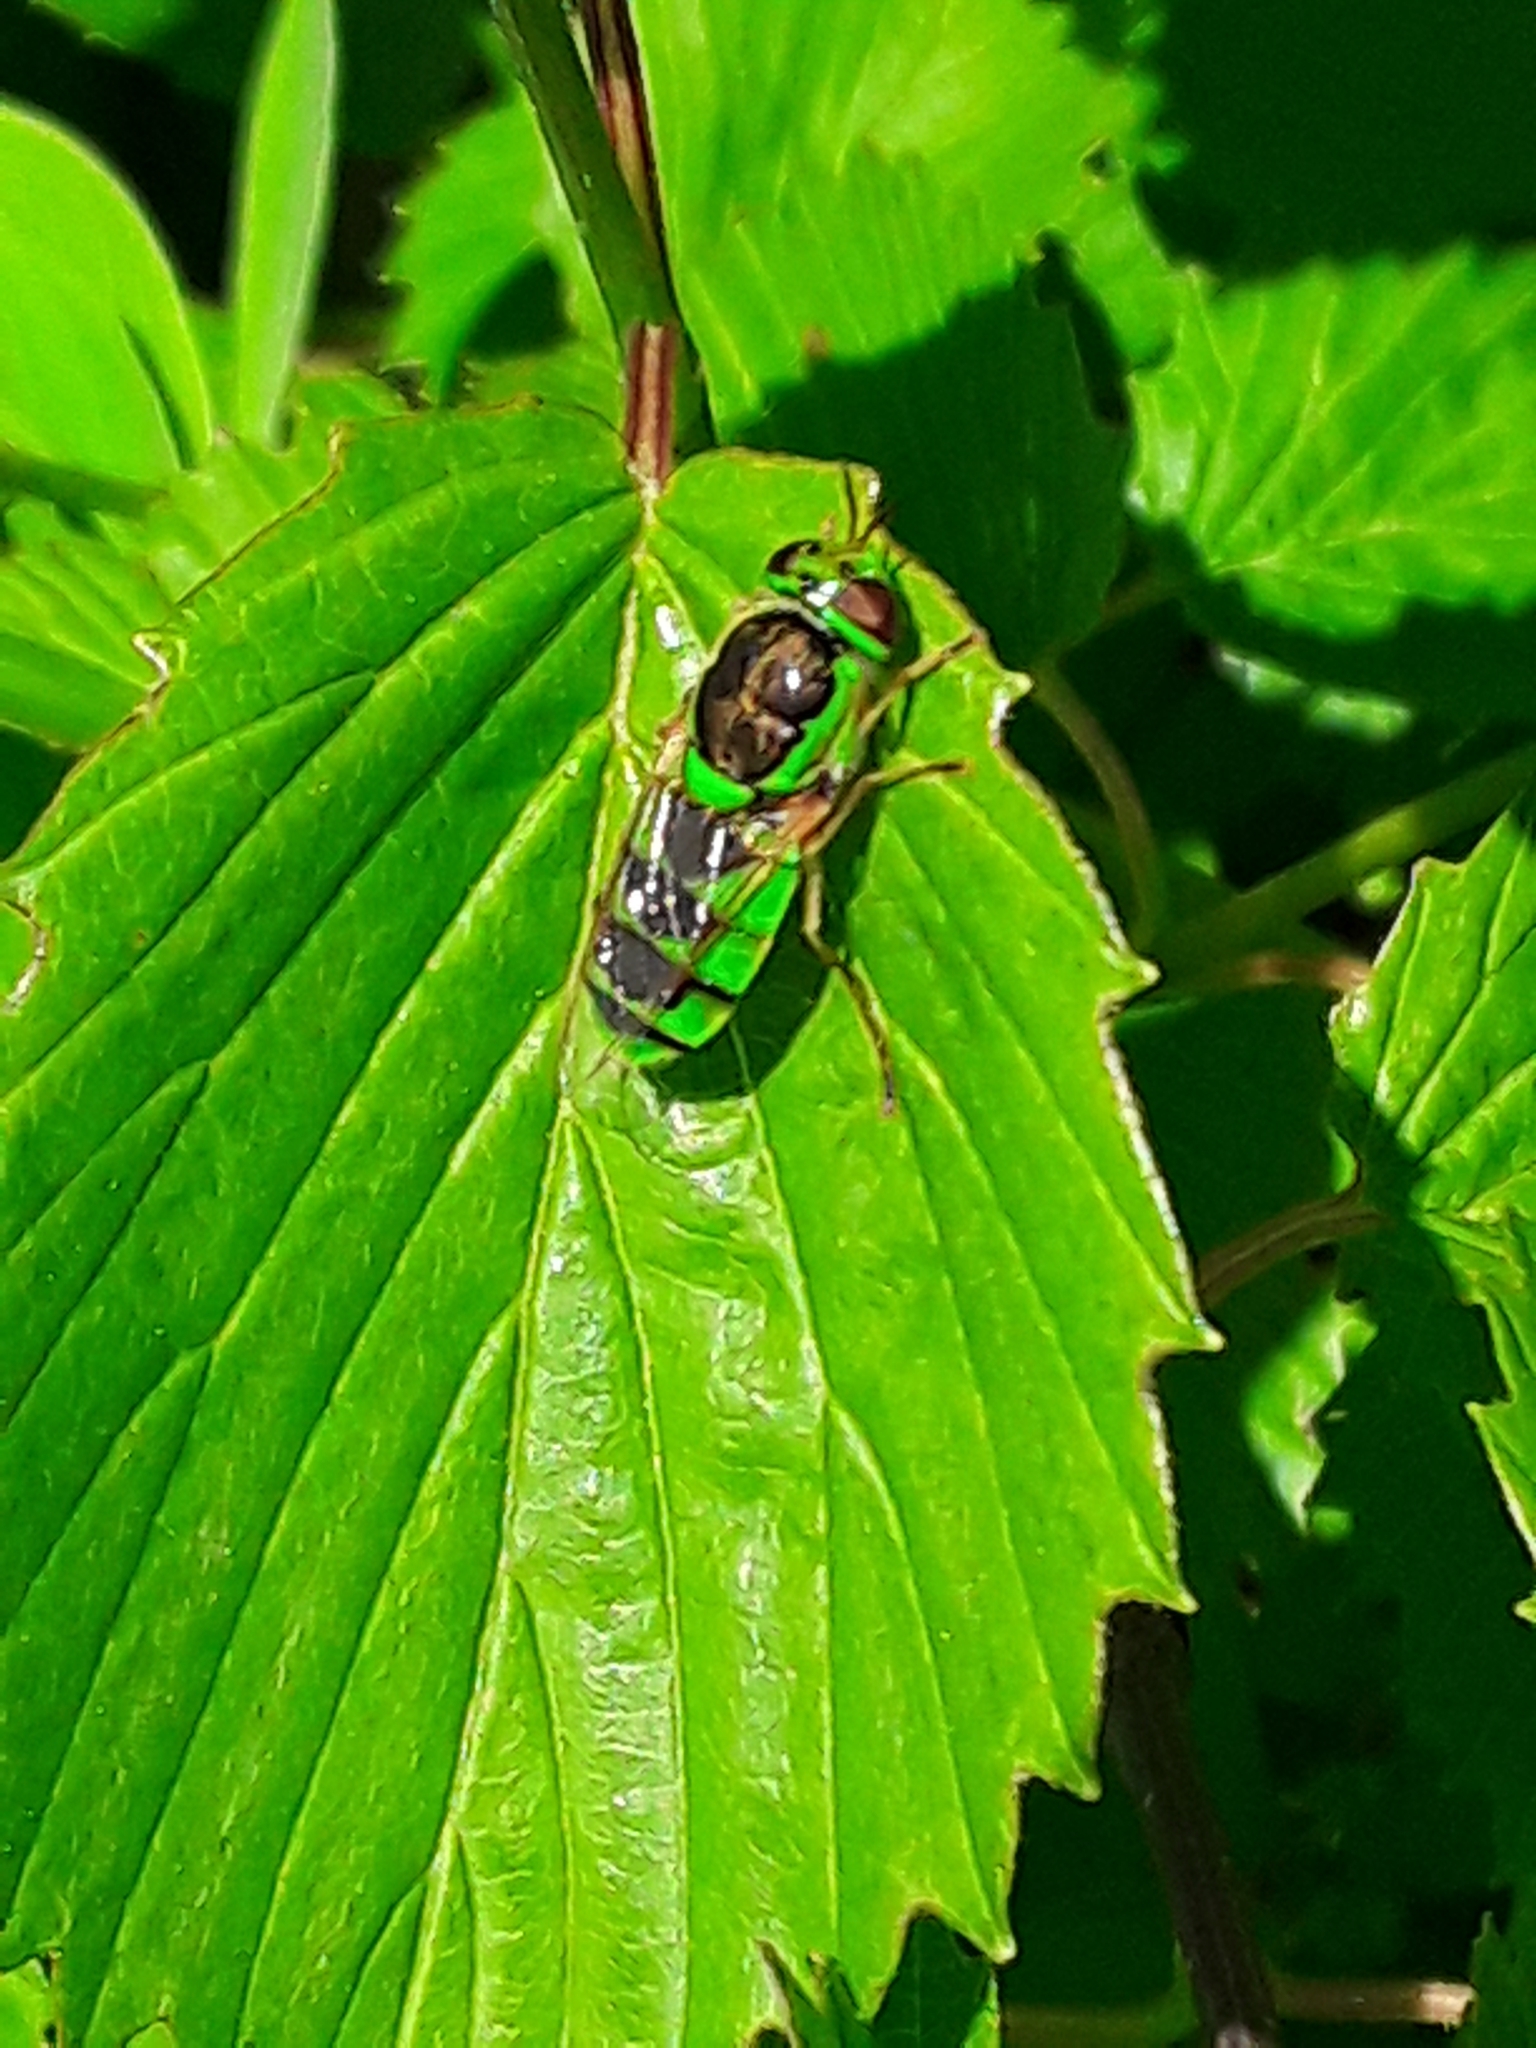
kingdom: Animalia
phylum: Arthropoda
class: Insecta
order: Diptera
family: Stratiomyidae
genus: Odontomyia
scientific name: Odontomyia cincta
